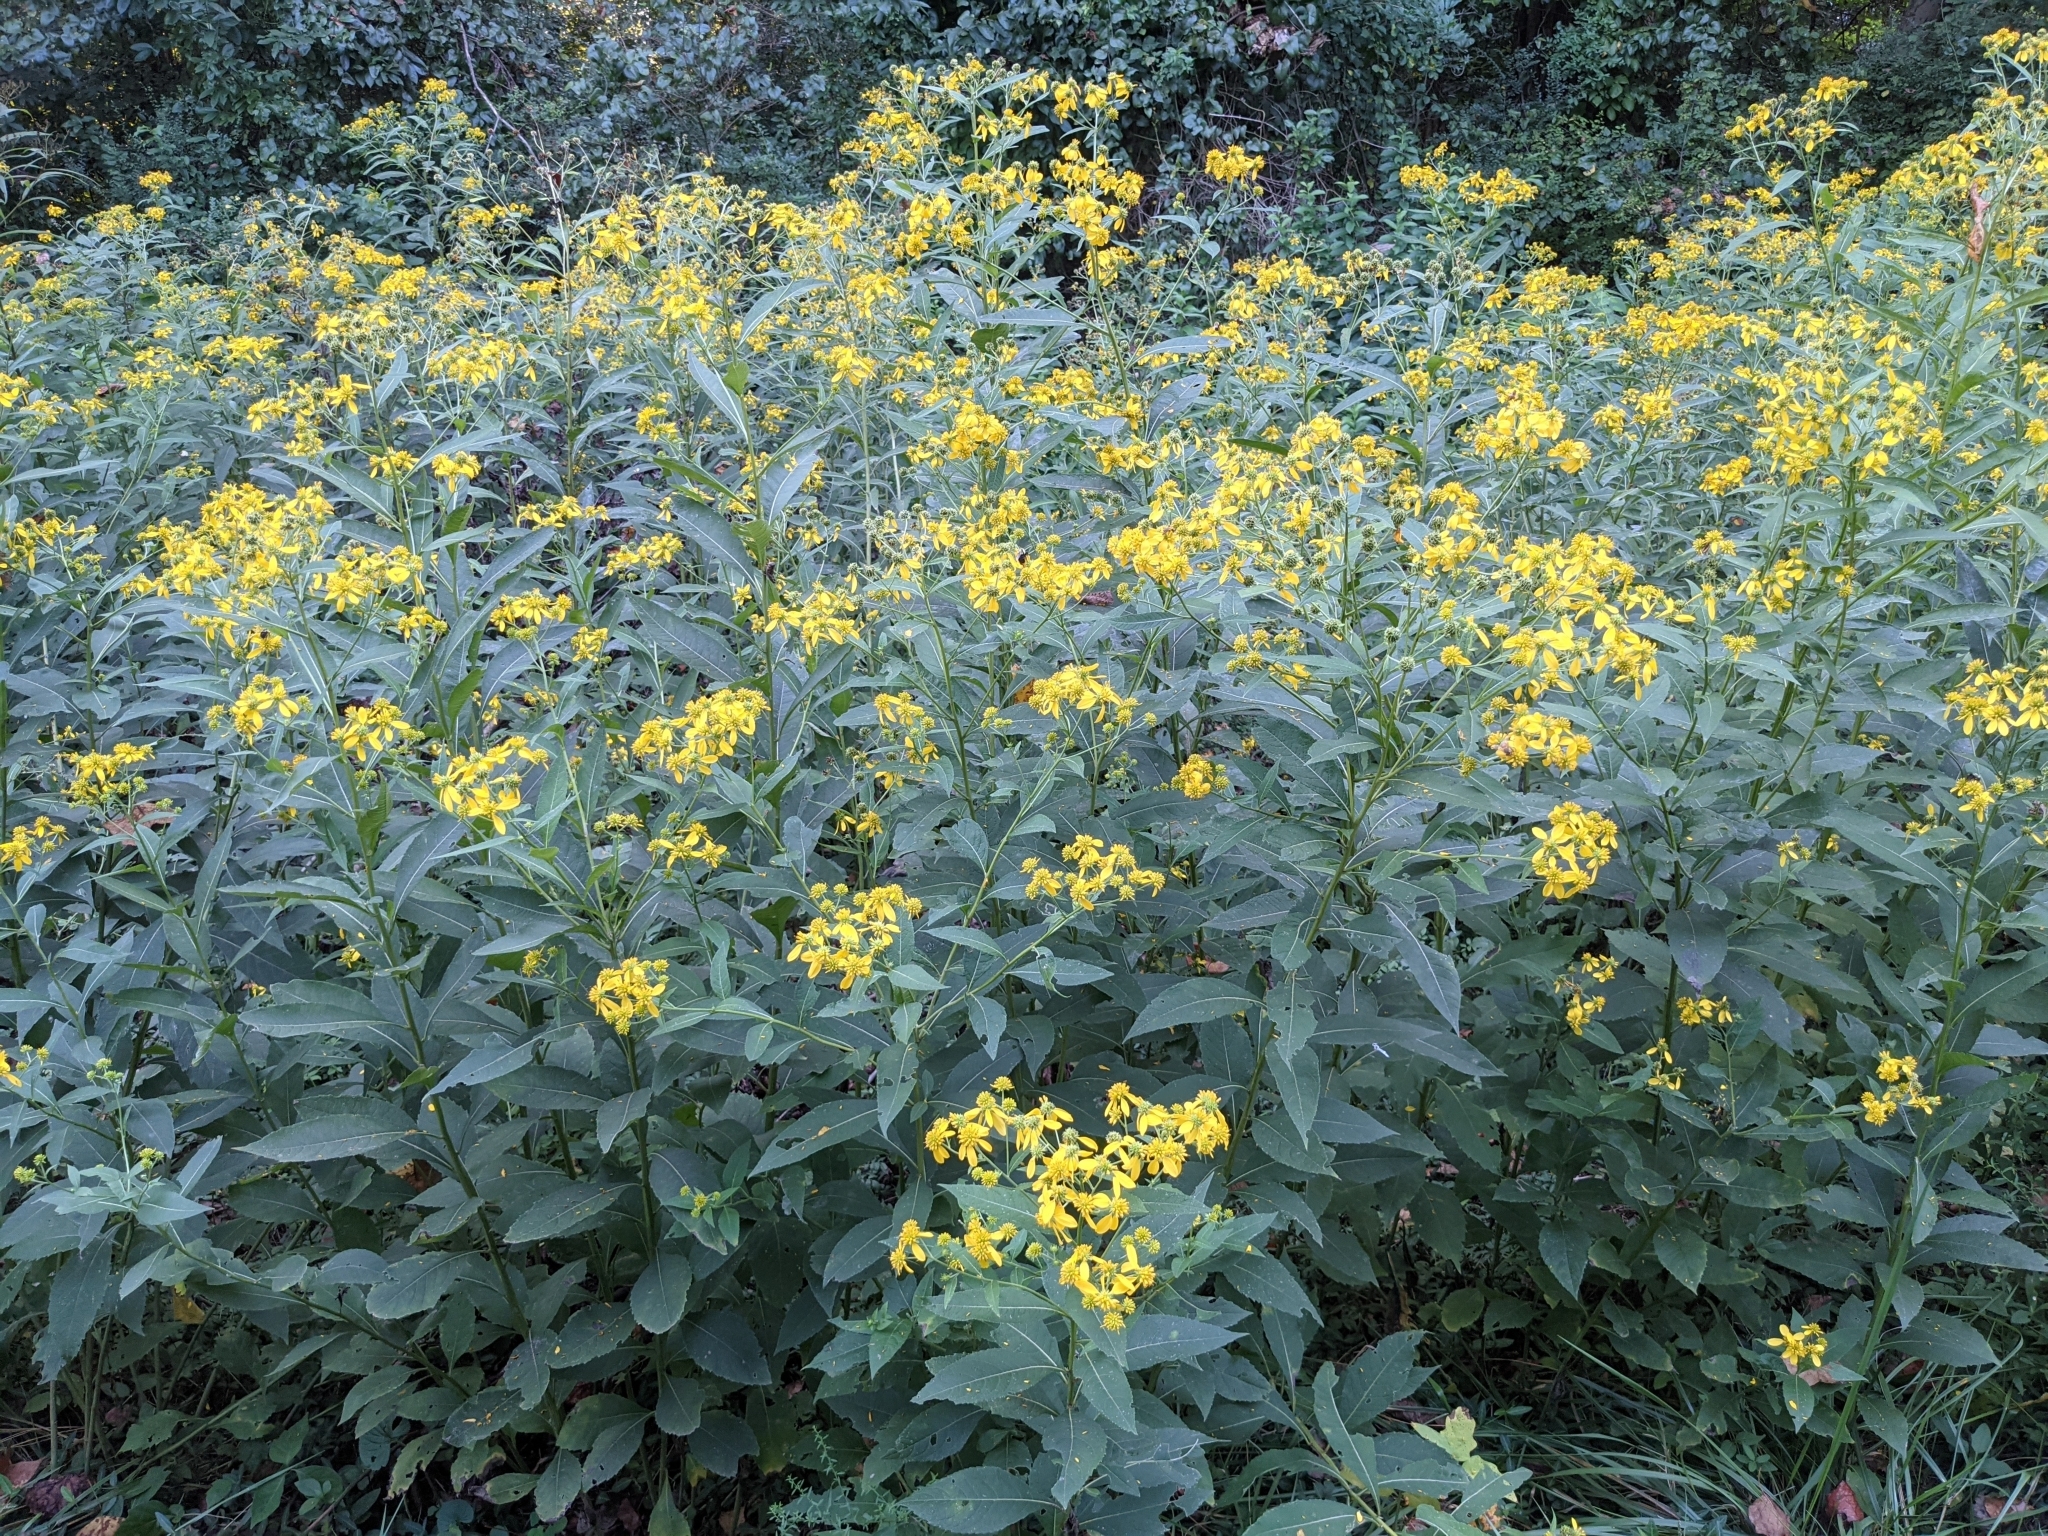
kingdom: Plantae
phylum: Tracheophyta
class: Magnoliopsida
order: Asterales
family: Asteraceae
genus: Verbesina
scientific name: Verbesina alternifolia
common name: Wingstem
